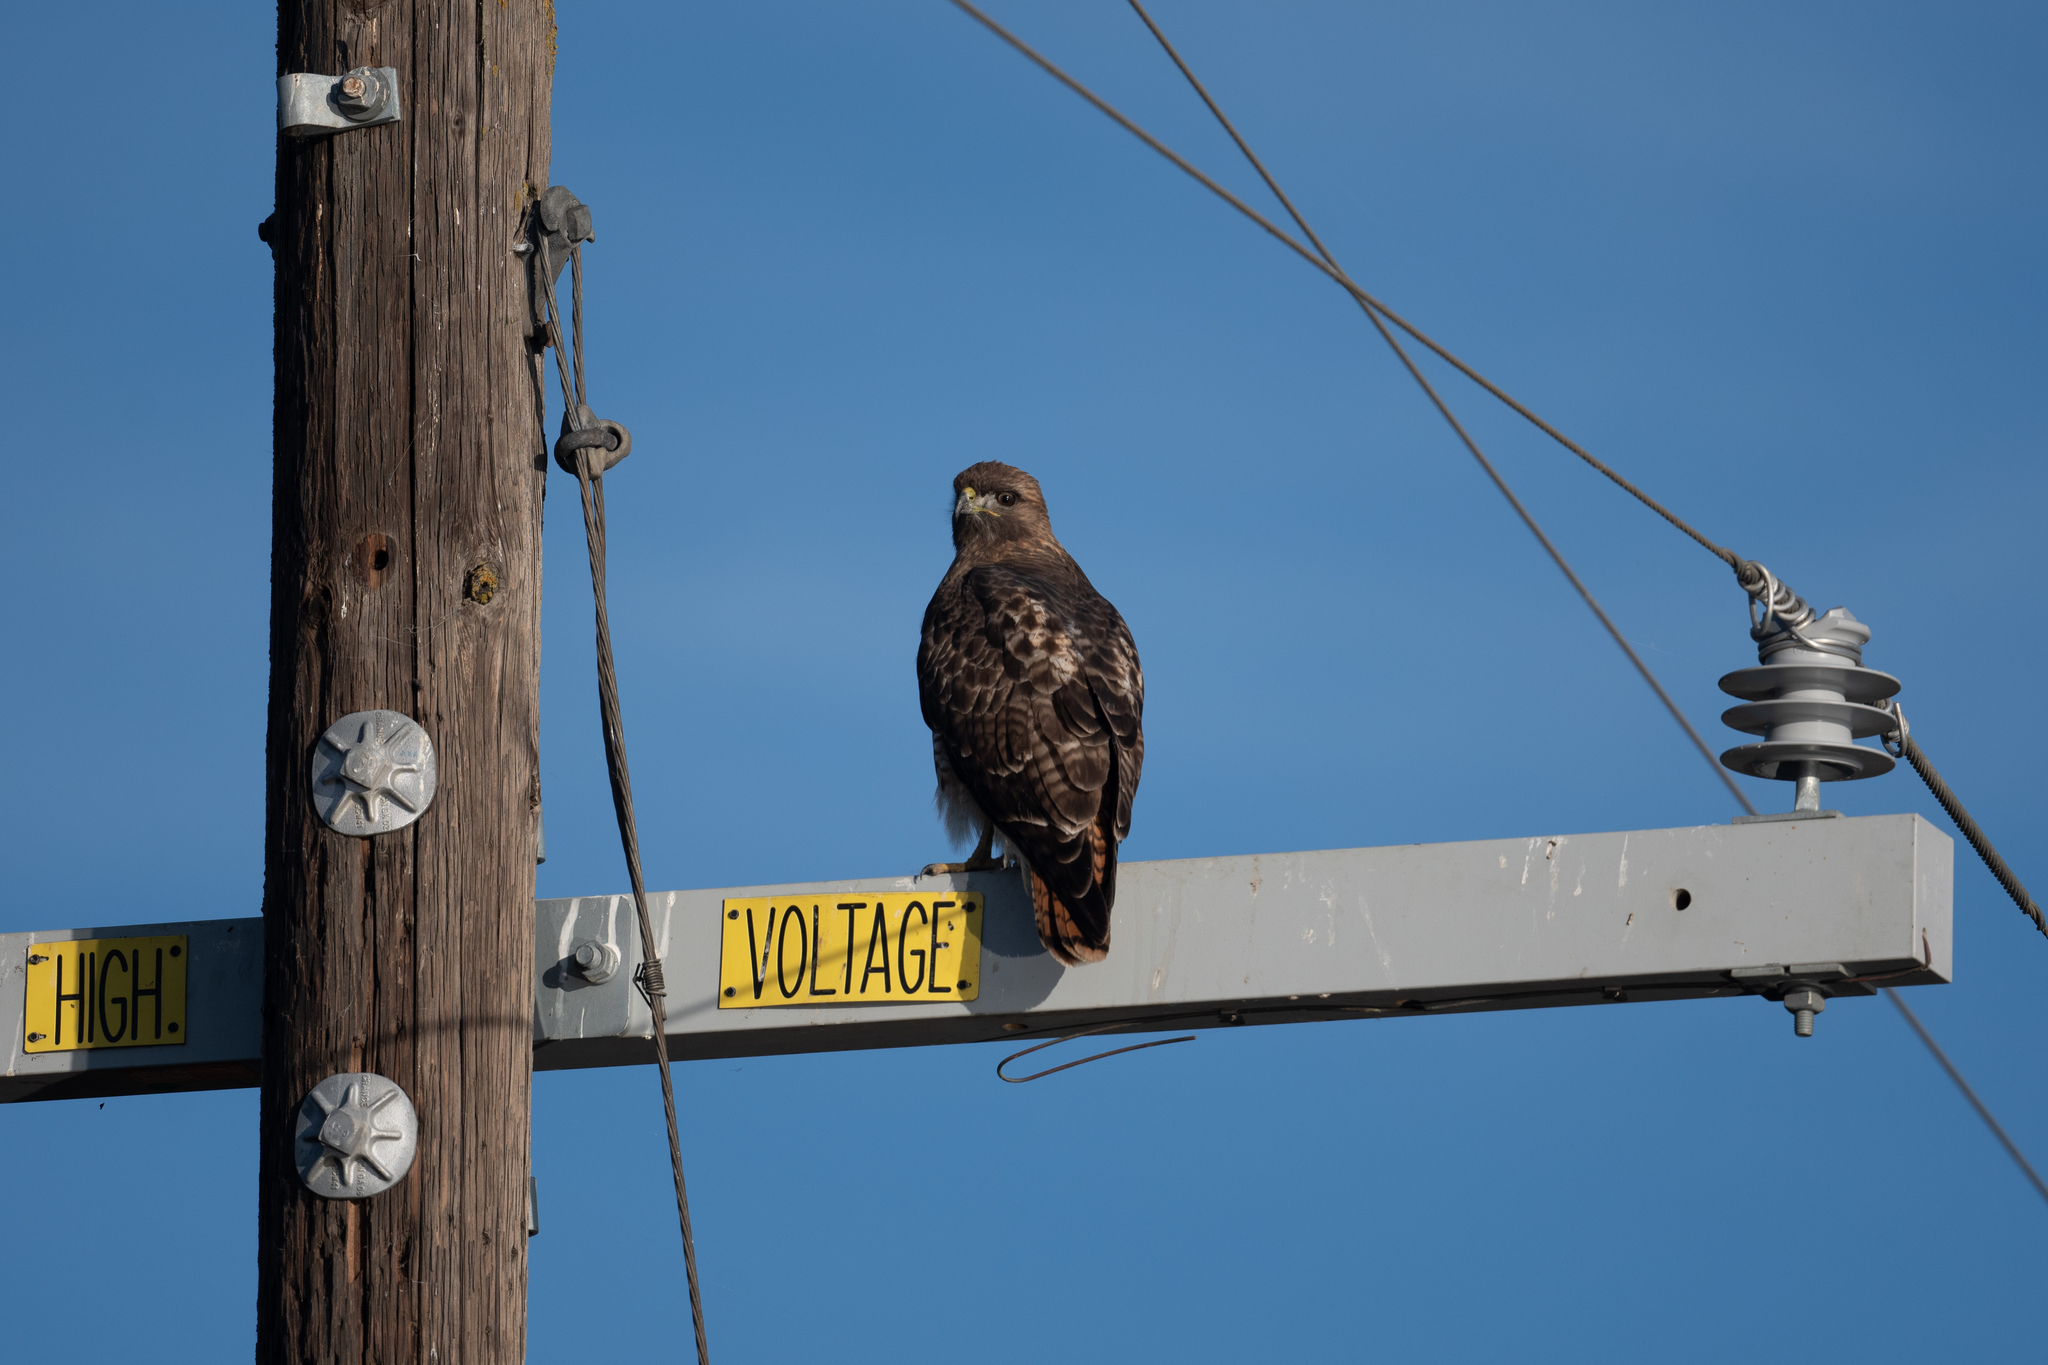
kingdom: Animalia
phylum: Chordata
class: Aves
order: Accipitriformes
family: Accipitridae
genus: Buteo
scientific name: Buteo jamaicensis
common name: Red-tailed hawk
